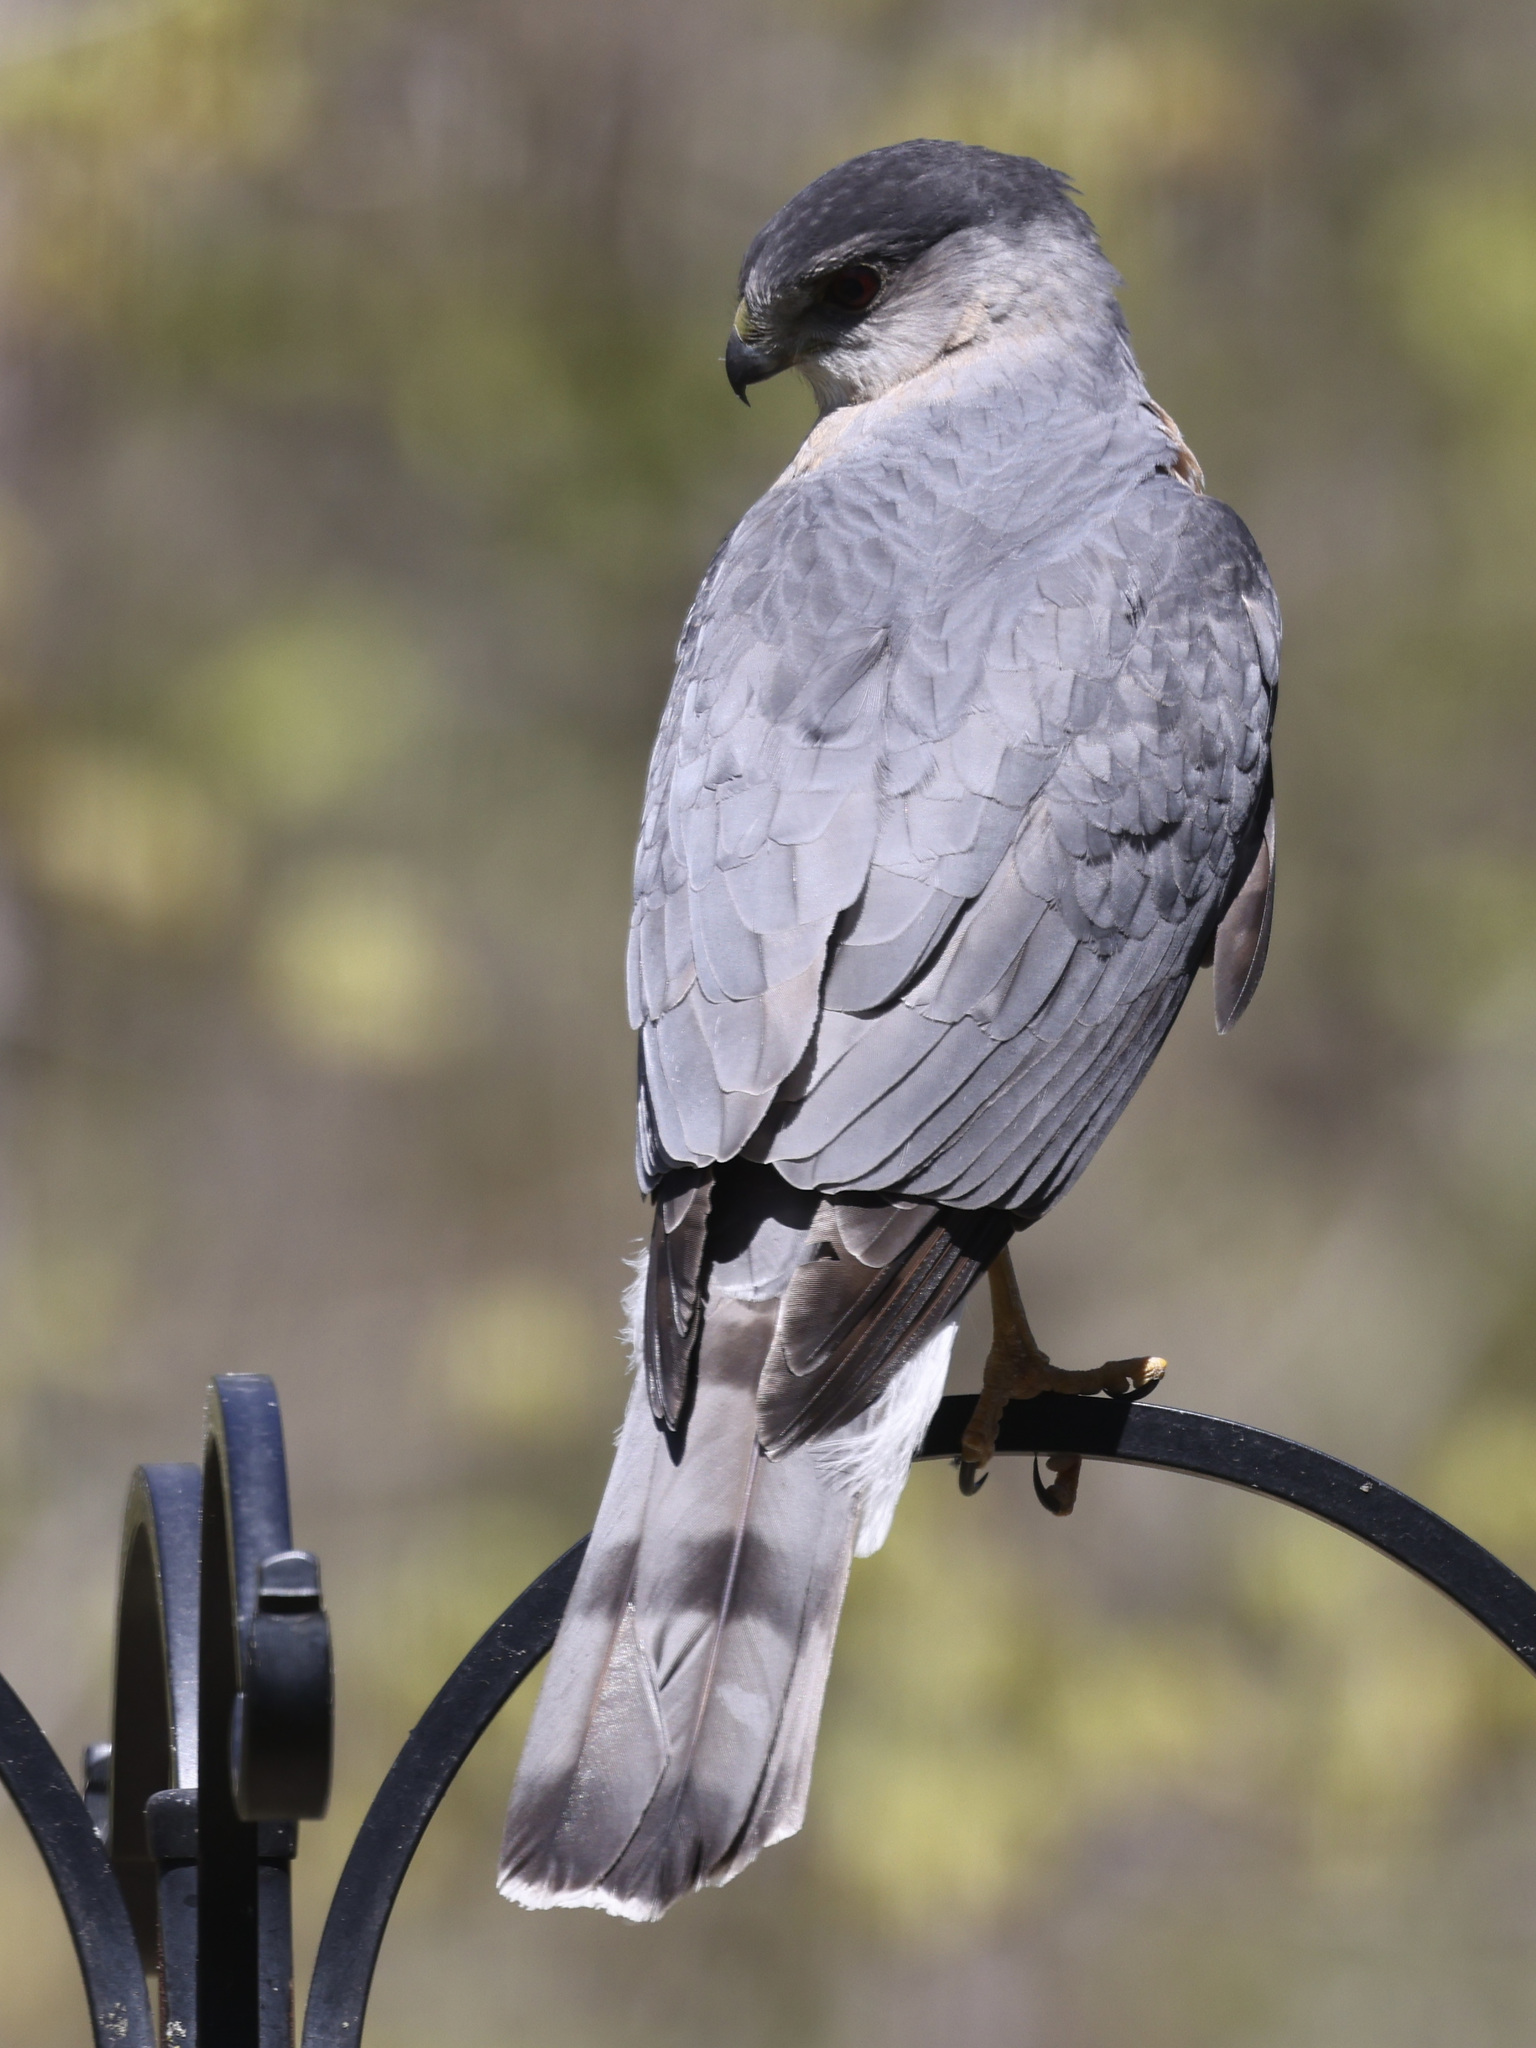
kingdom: Animalia
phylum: Chordata
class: Aves
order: Accipitriformes
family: Accipitridae
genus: Accipiter
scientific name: Accipiter cooperii
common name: Cooper's hawk
